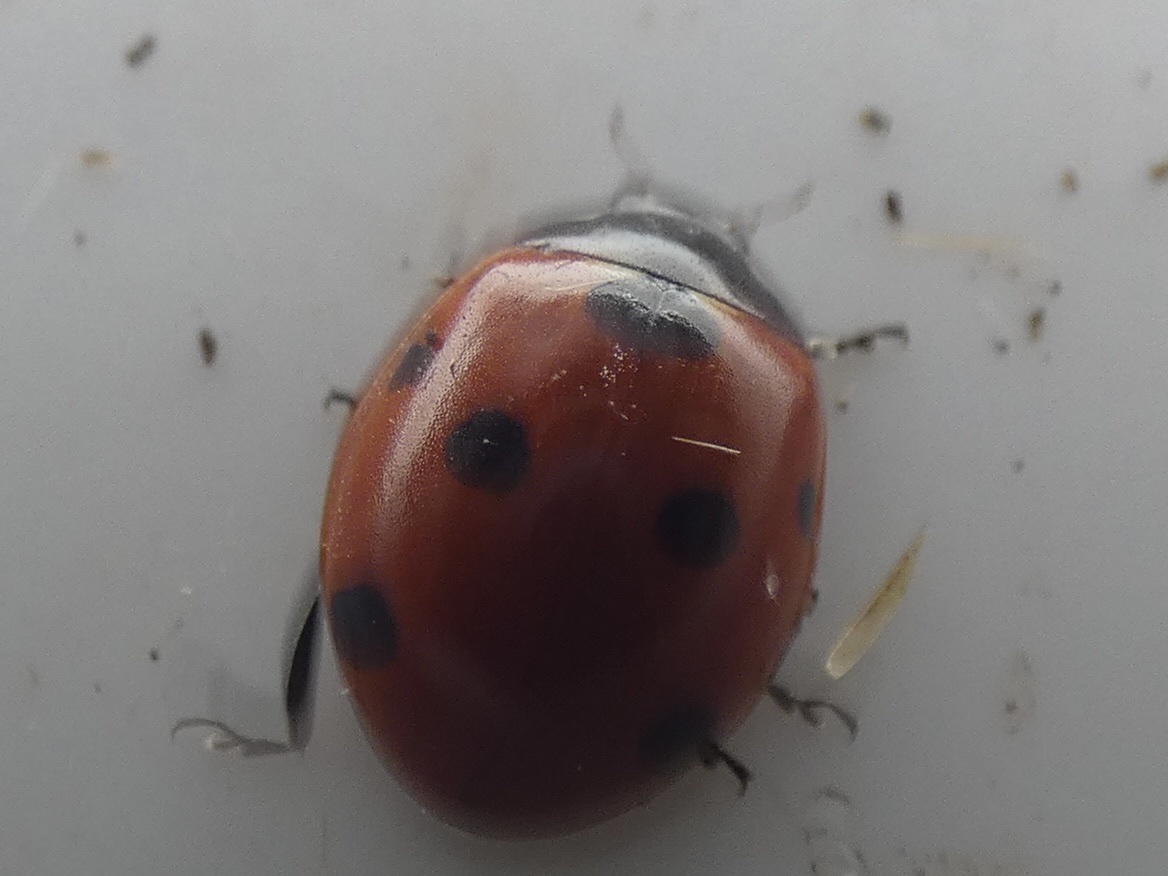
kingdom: Animalia
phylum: Arthropoda
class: Insecta
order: Coleoptera
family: Coccinellidae
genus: Coccinella
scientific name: Coccinella septempunctata
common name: Sevenspotted lady beetle
